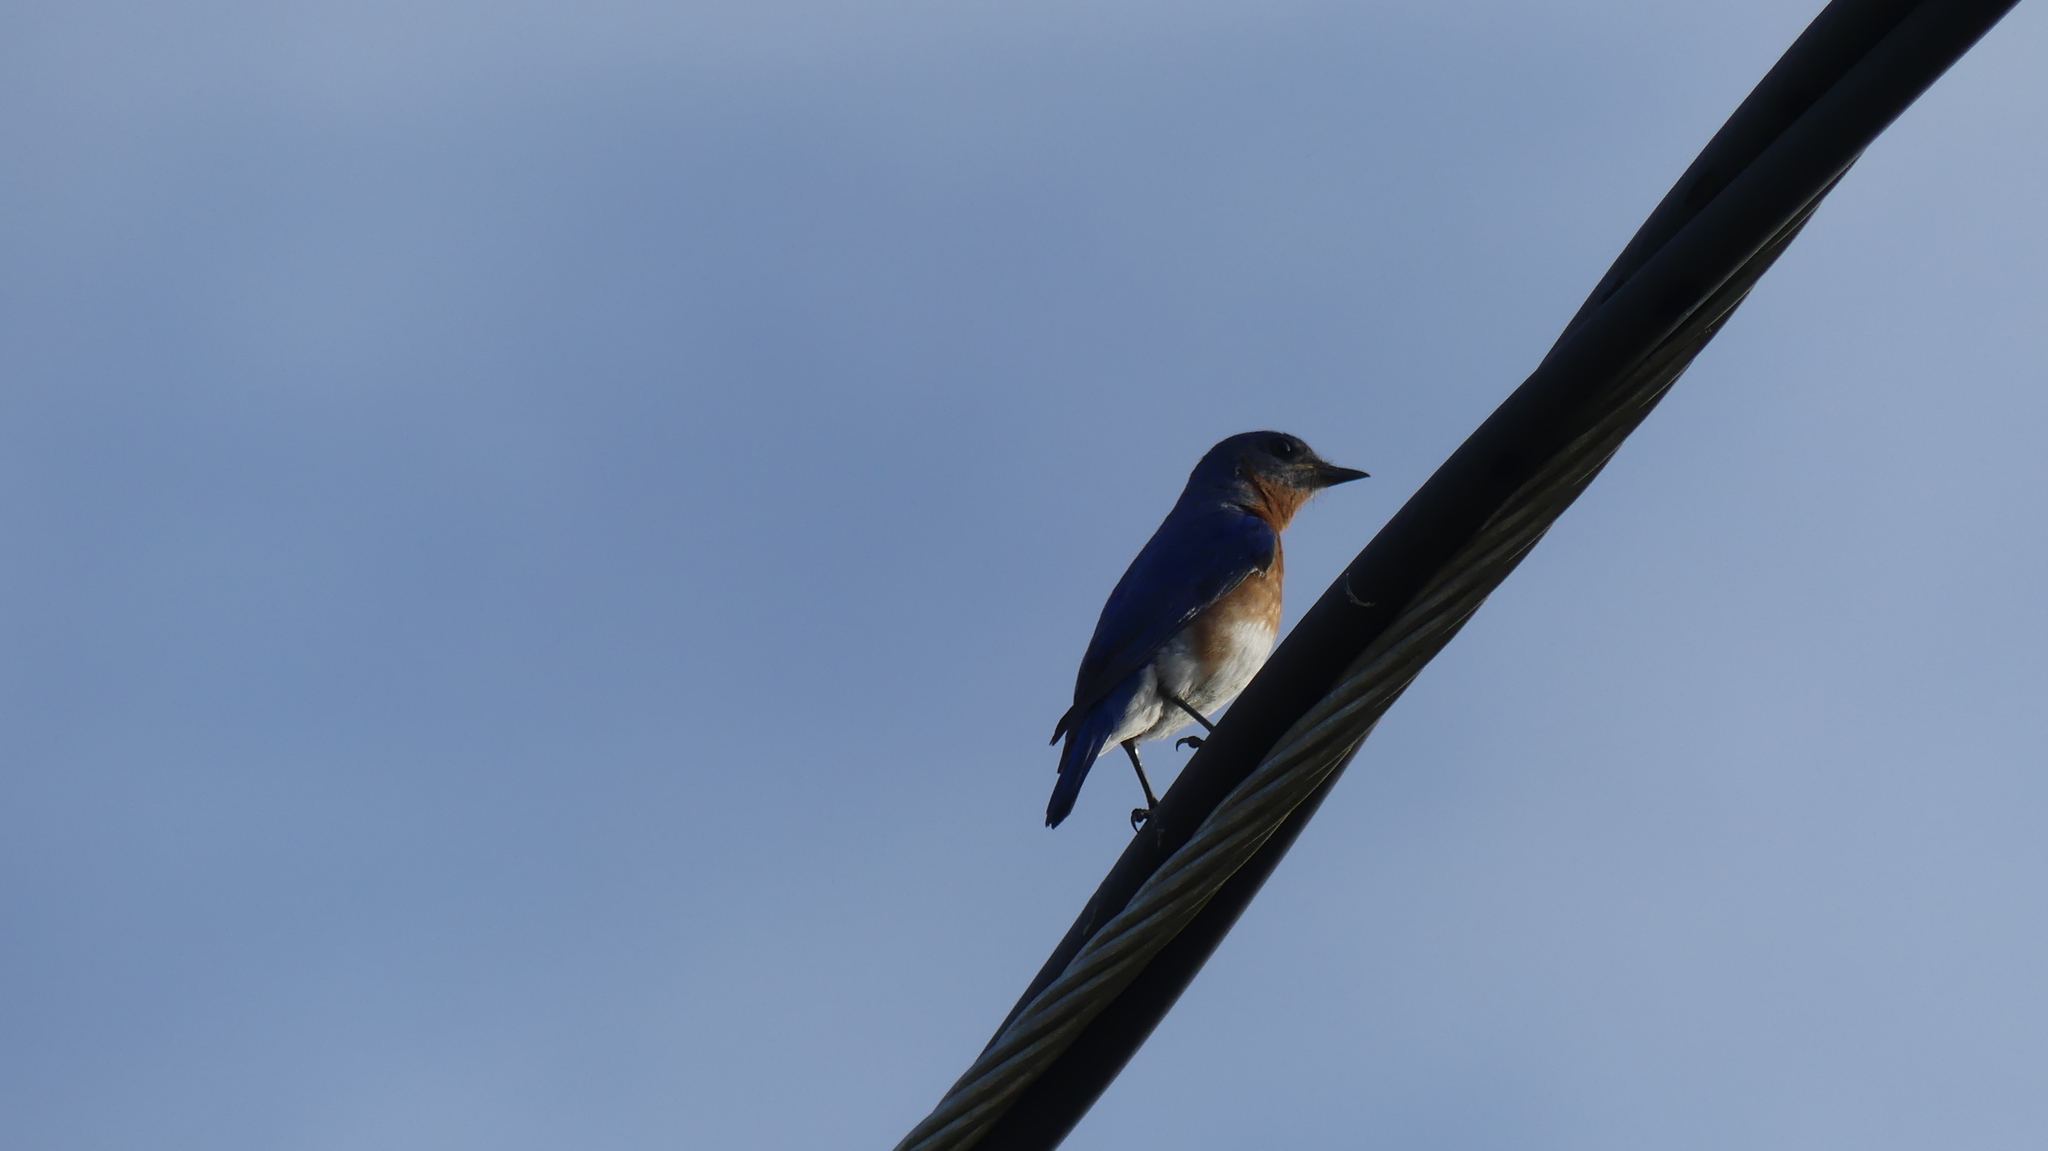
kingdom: Animalia
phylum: Chordata
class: Aves
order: Passeriformes
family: Turdidae
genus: Sialia
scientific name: Sialia sialis
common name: Eastern bluebird
